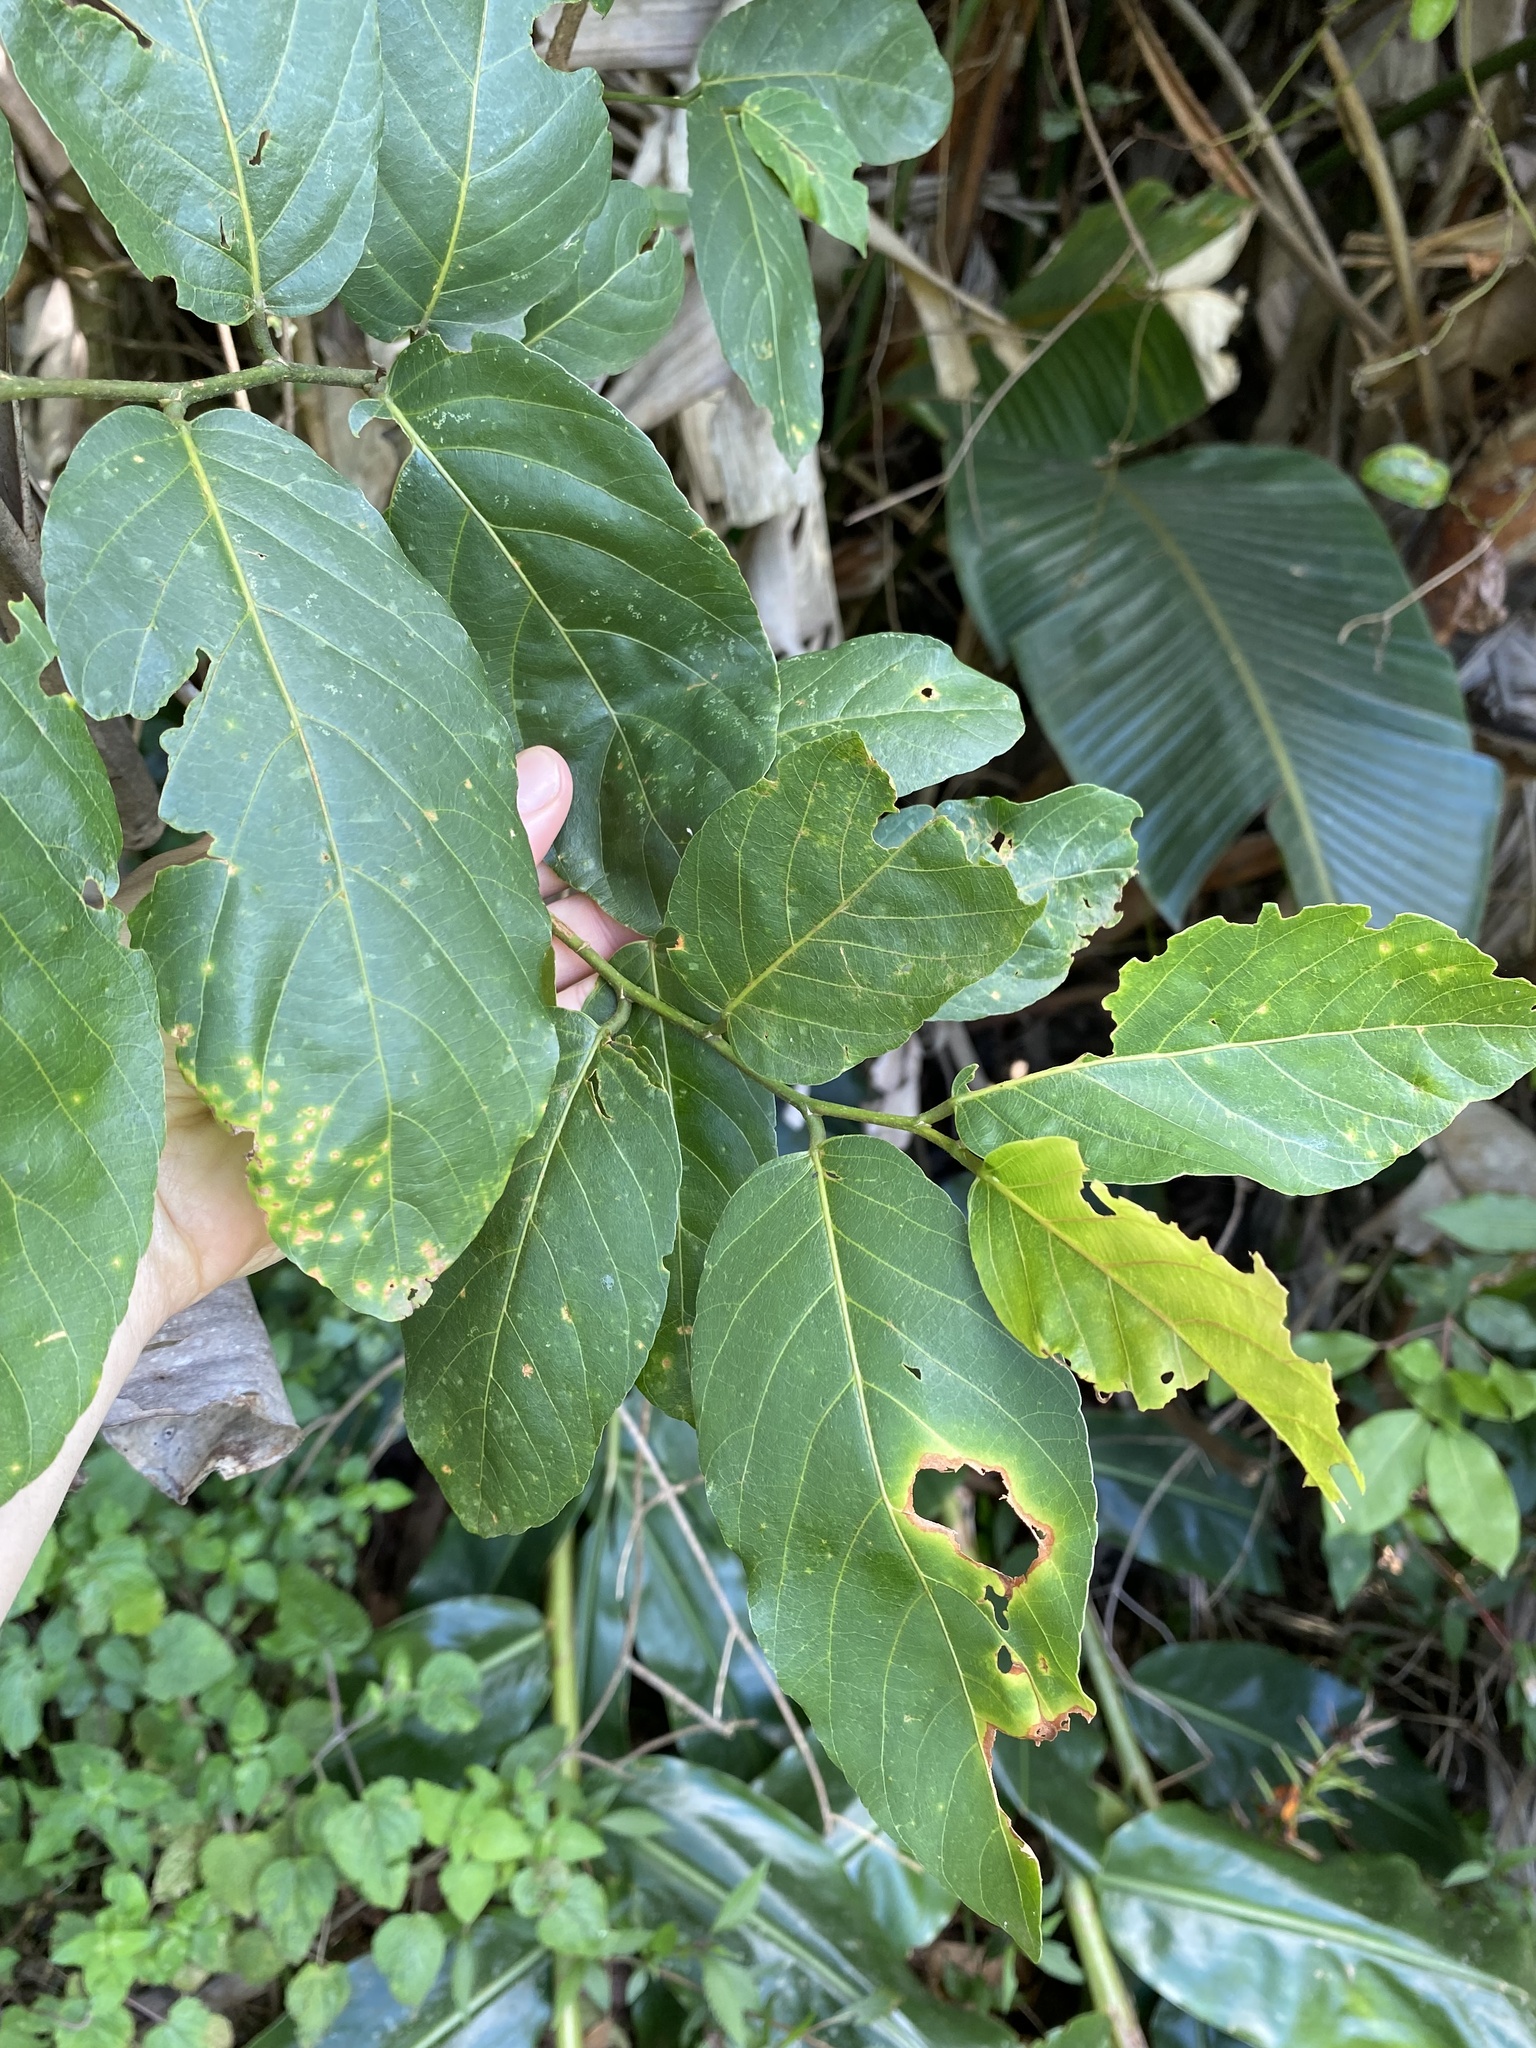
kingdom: Plantae
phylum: Tracheophyta
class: Magnoliopsida
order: Malpighiales
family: Phyllanthaceae
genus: Bridelia
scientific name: Bridelia micrantha
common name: Bridelia
